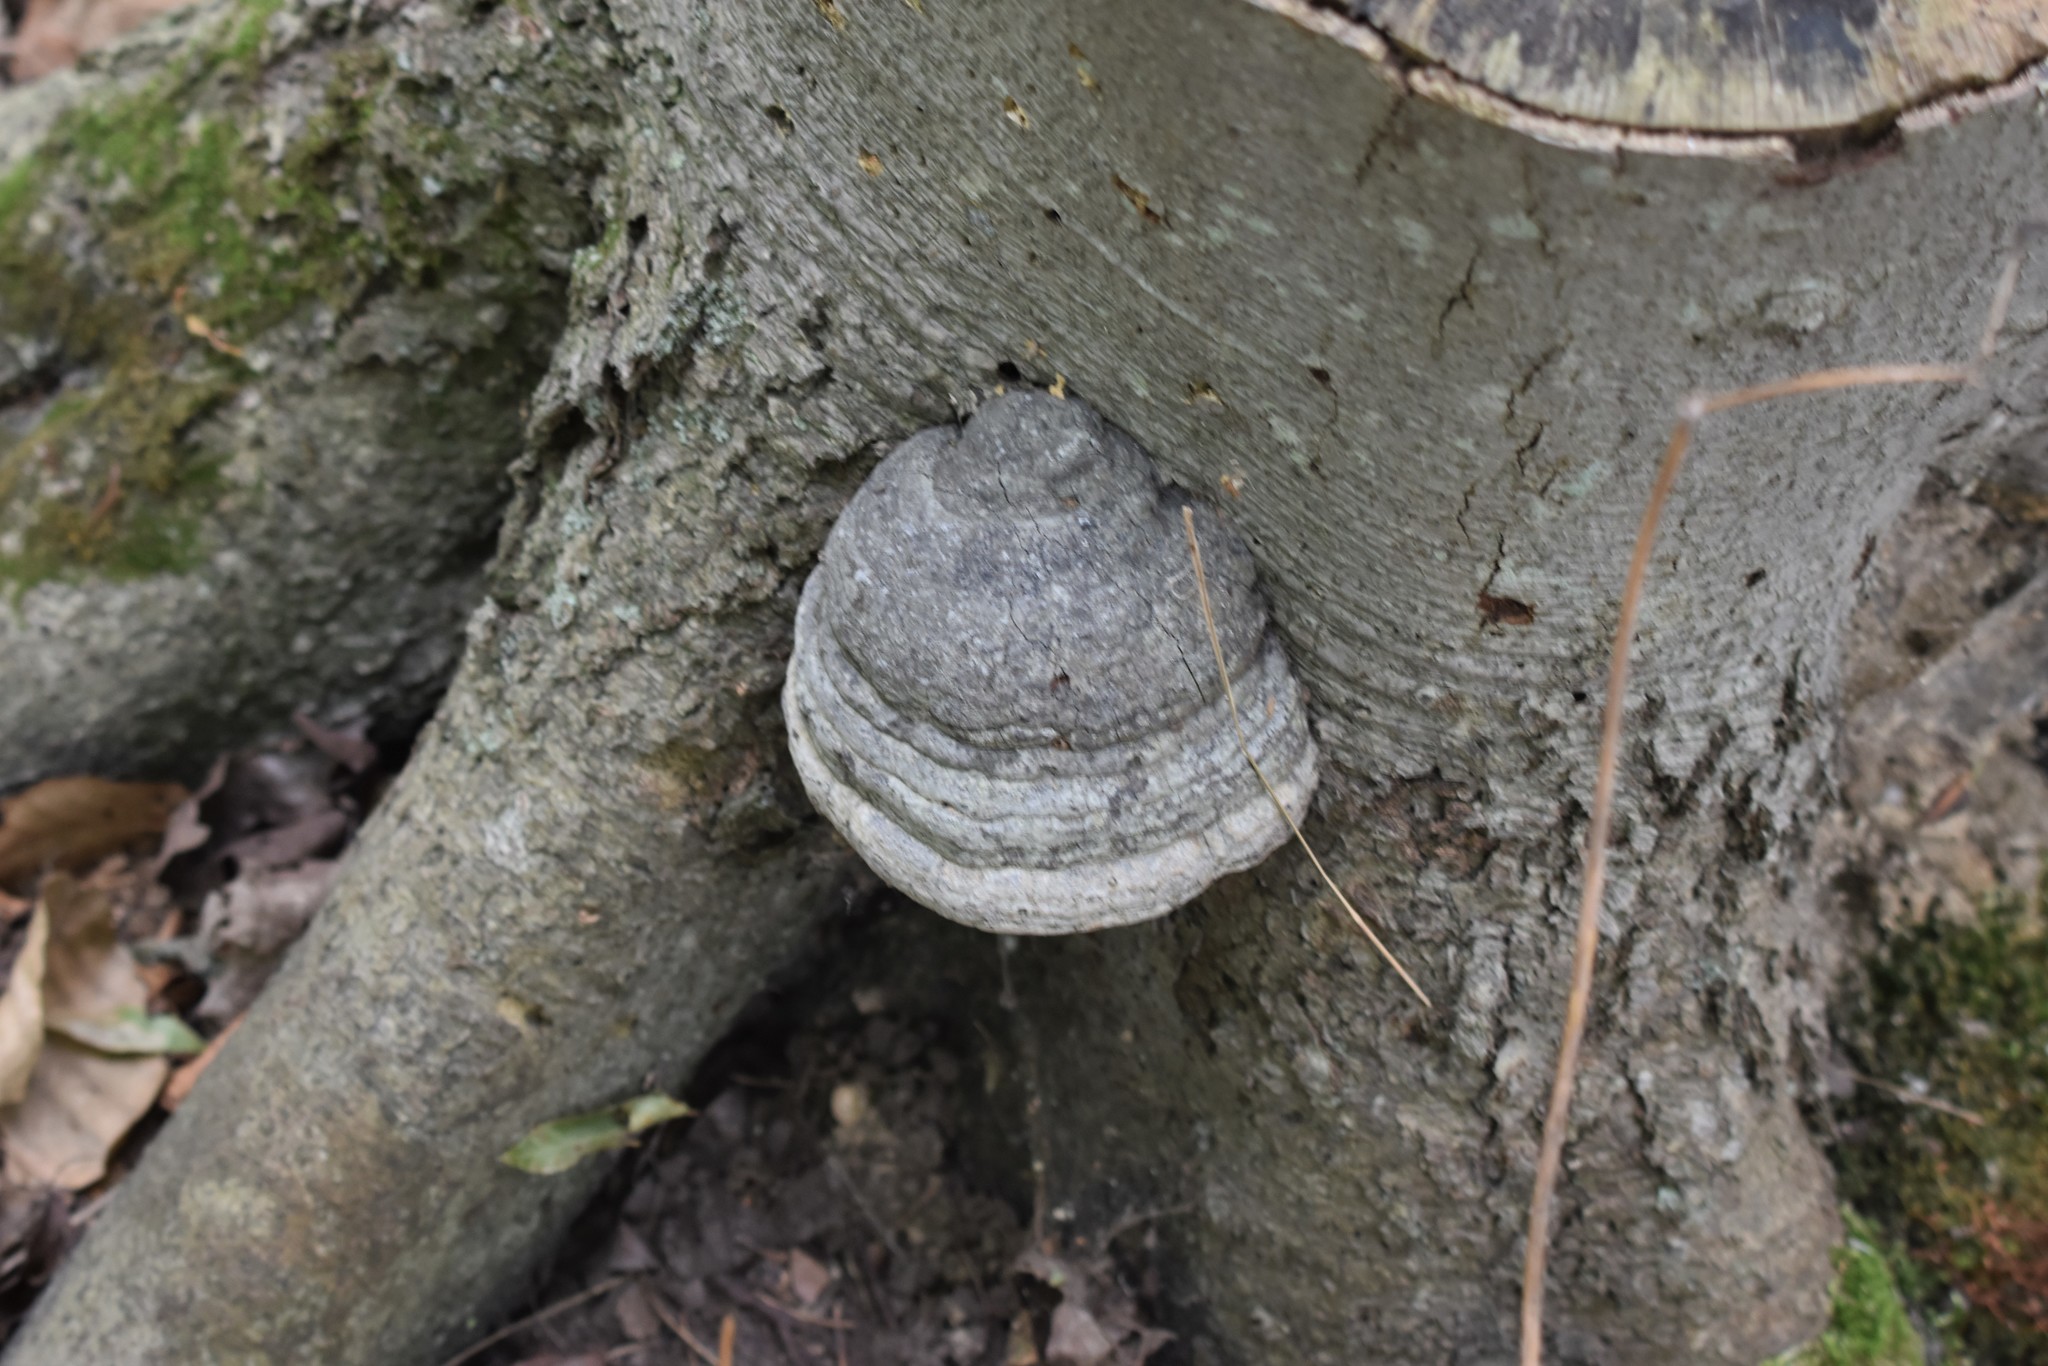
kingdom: Fungi
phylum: Basidiomycota
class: Agaricomycetes
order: Polyporales
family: Polyporaceae
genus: Fomes
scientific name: Fomes fomentarius
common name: Hoof fungus
